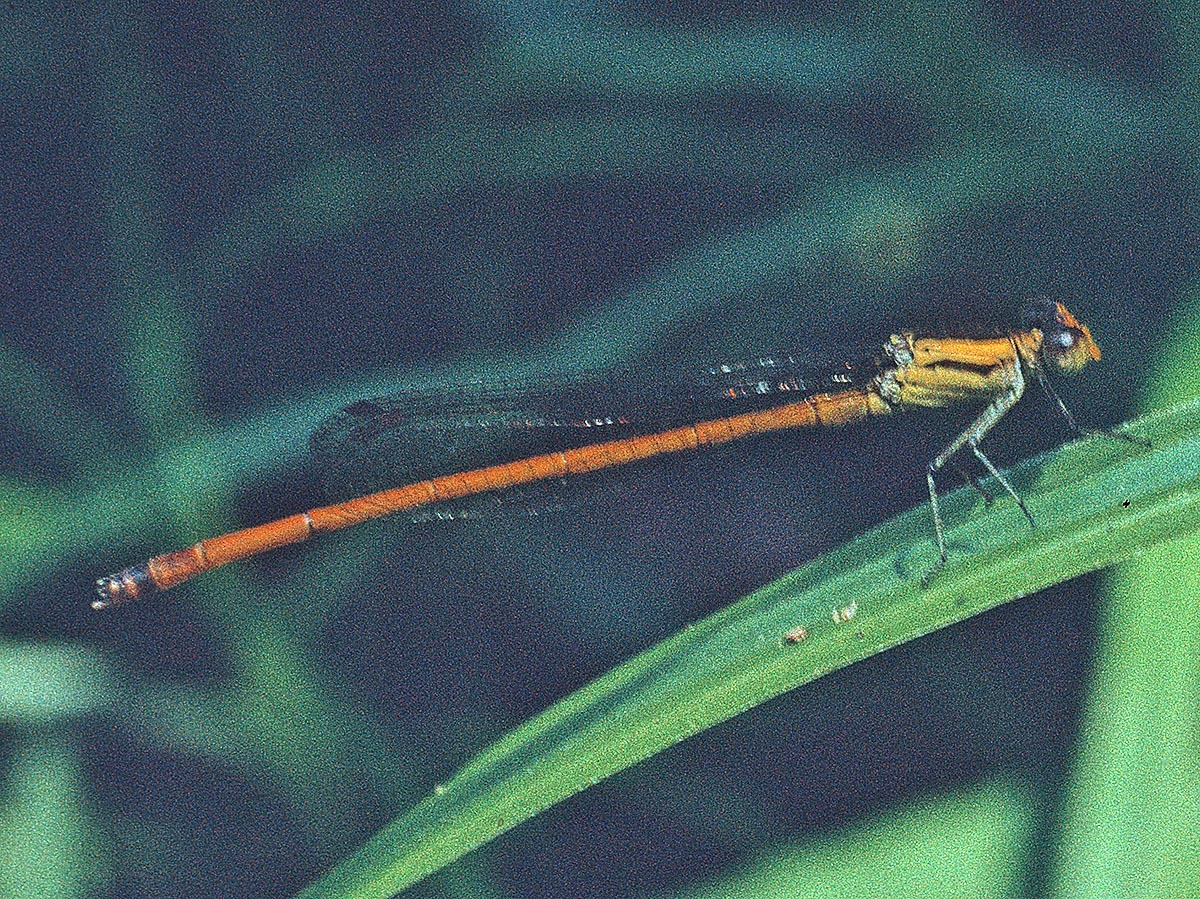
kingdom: Animalia
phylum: Arthropoda
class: Insecta
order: Odonata
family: Coenagrionidae
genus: Telebasis
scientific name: Telebasis aurea
